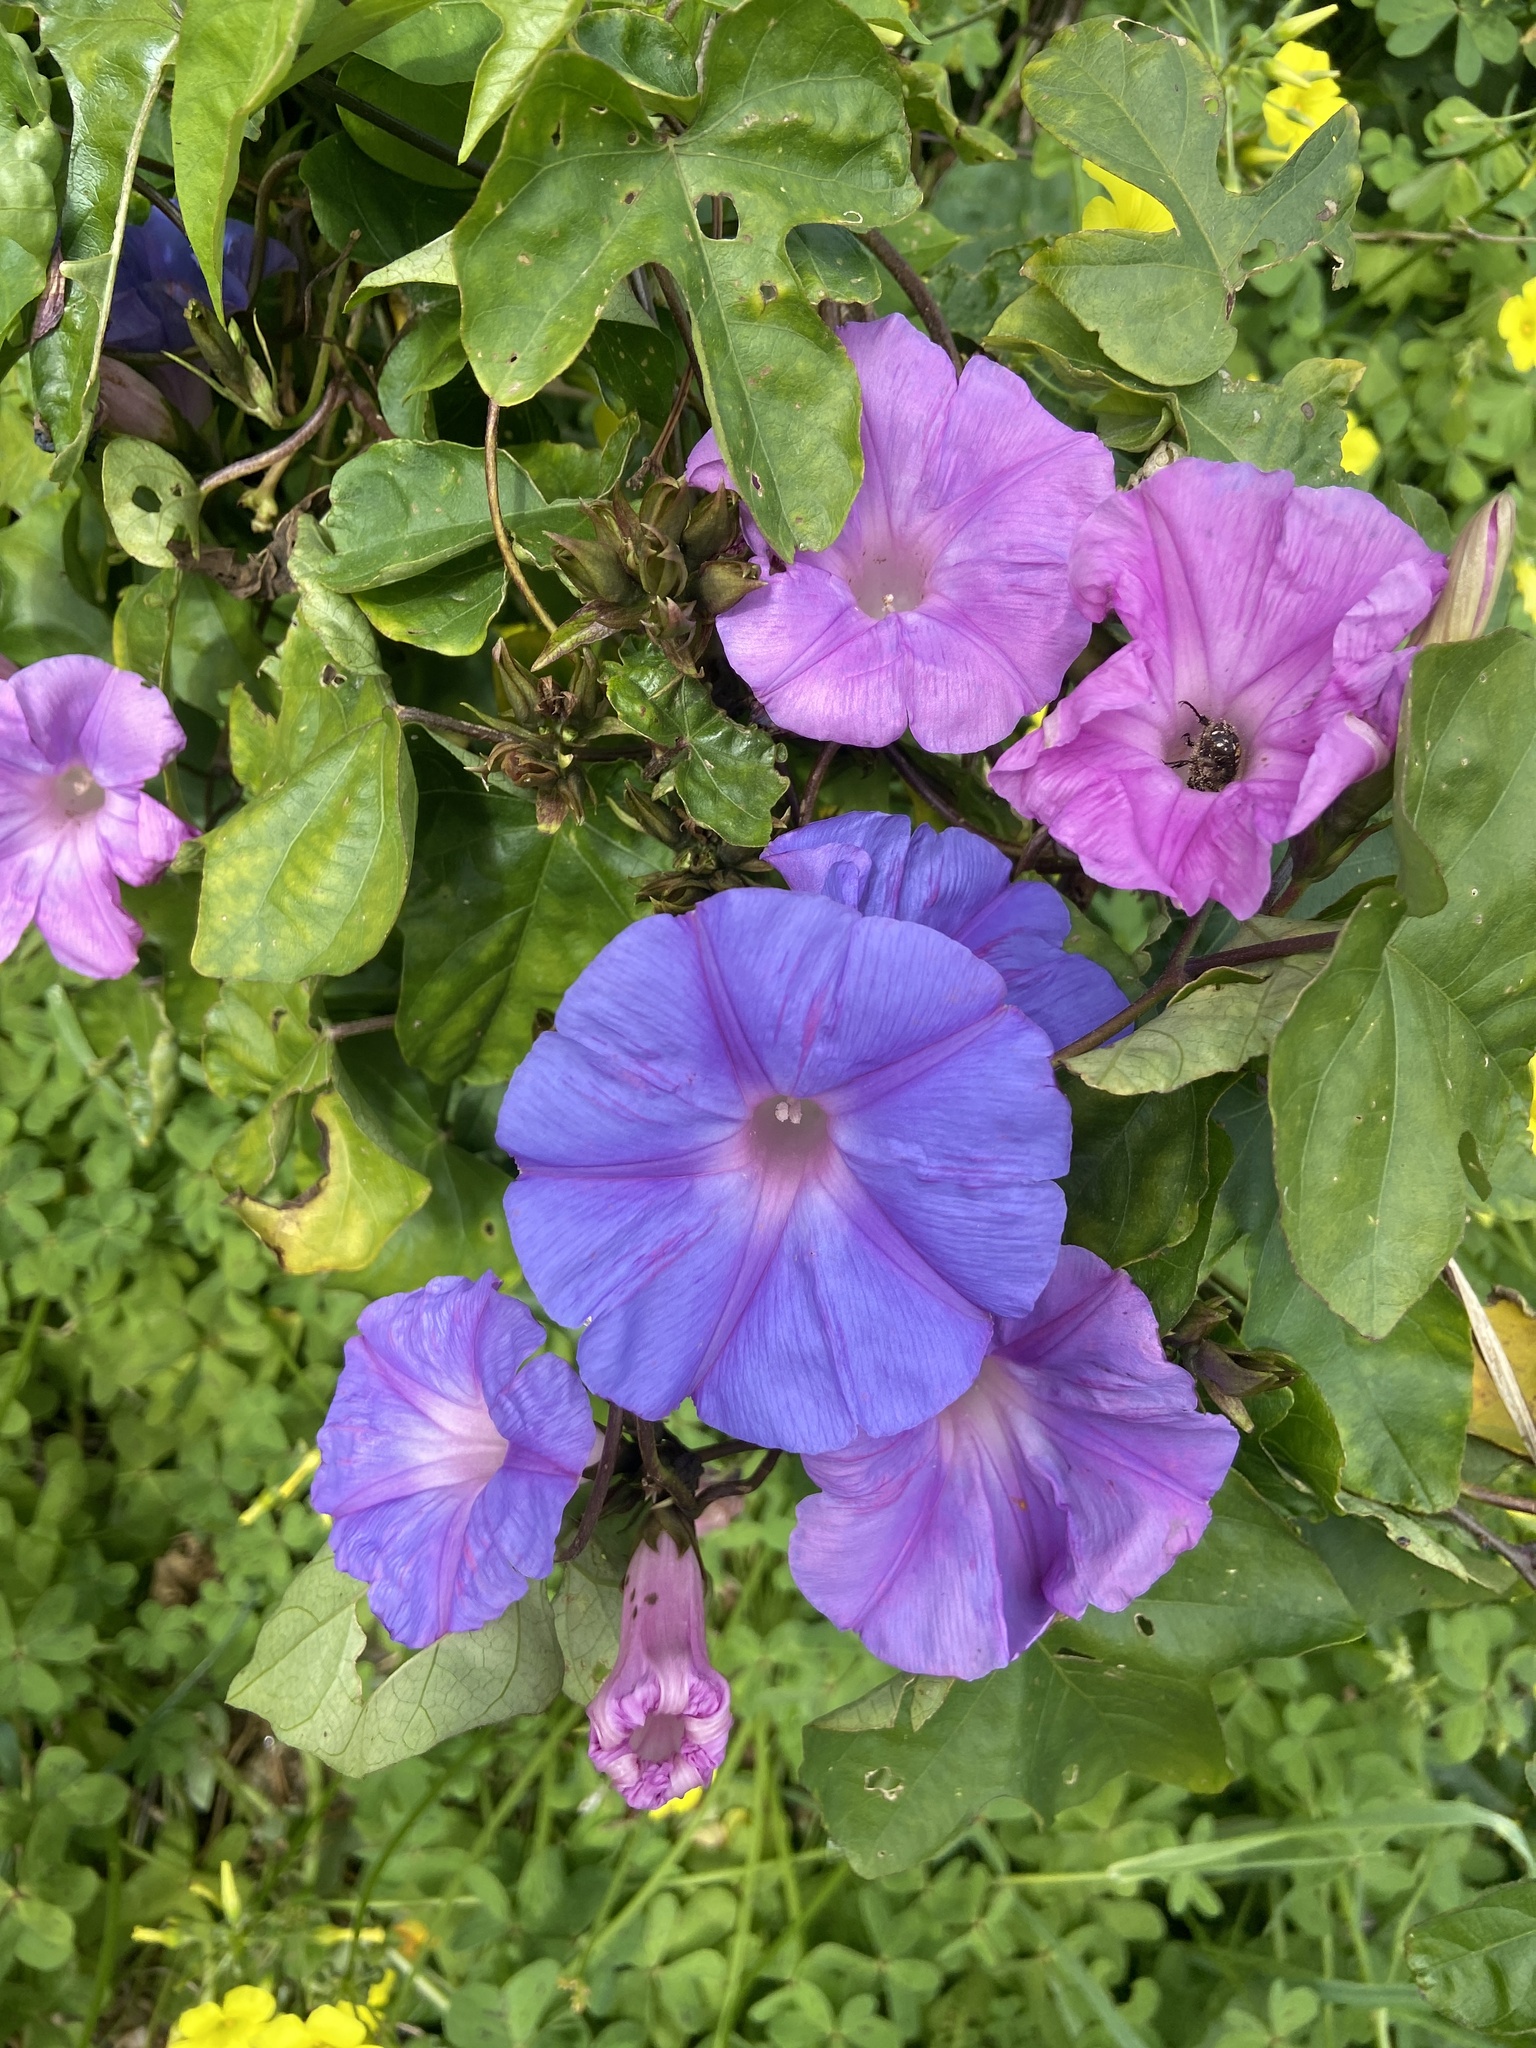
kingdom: Plantae
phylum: Tracheophyta
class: Magnoliopsida
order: Solanales
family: Convolvulaceae
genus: Ipomoea
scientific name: Ipomoea indica
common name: Blue dawnflower
